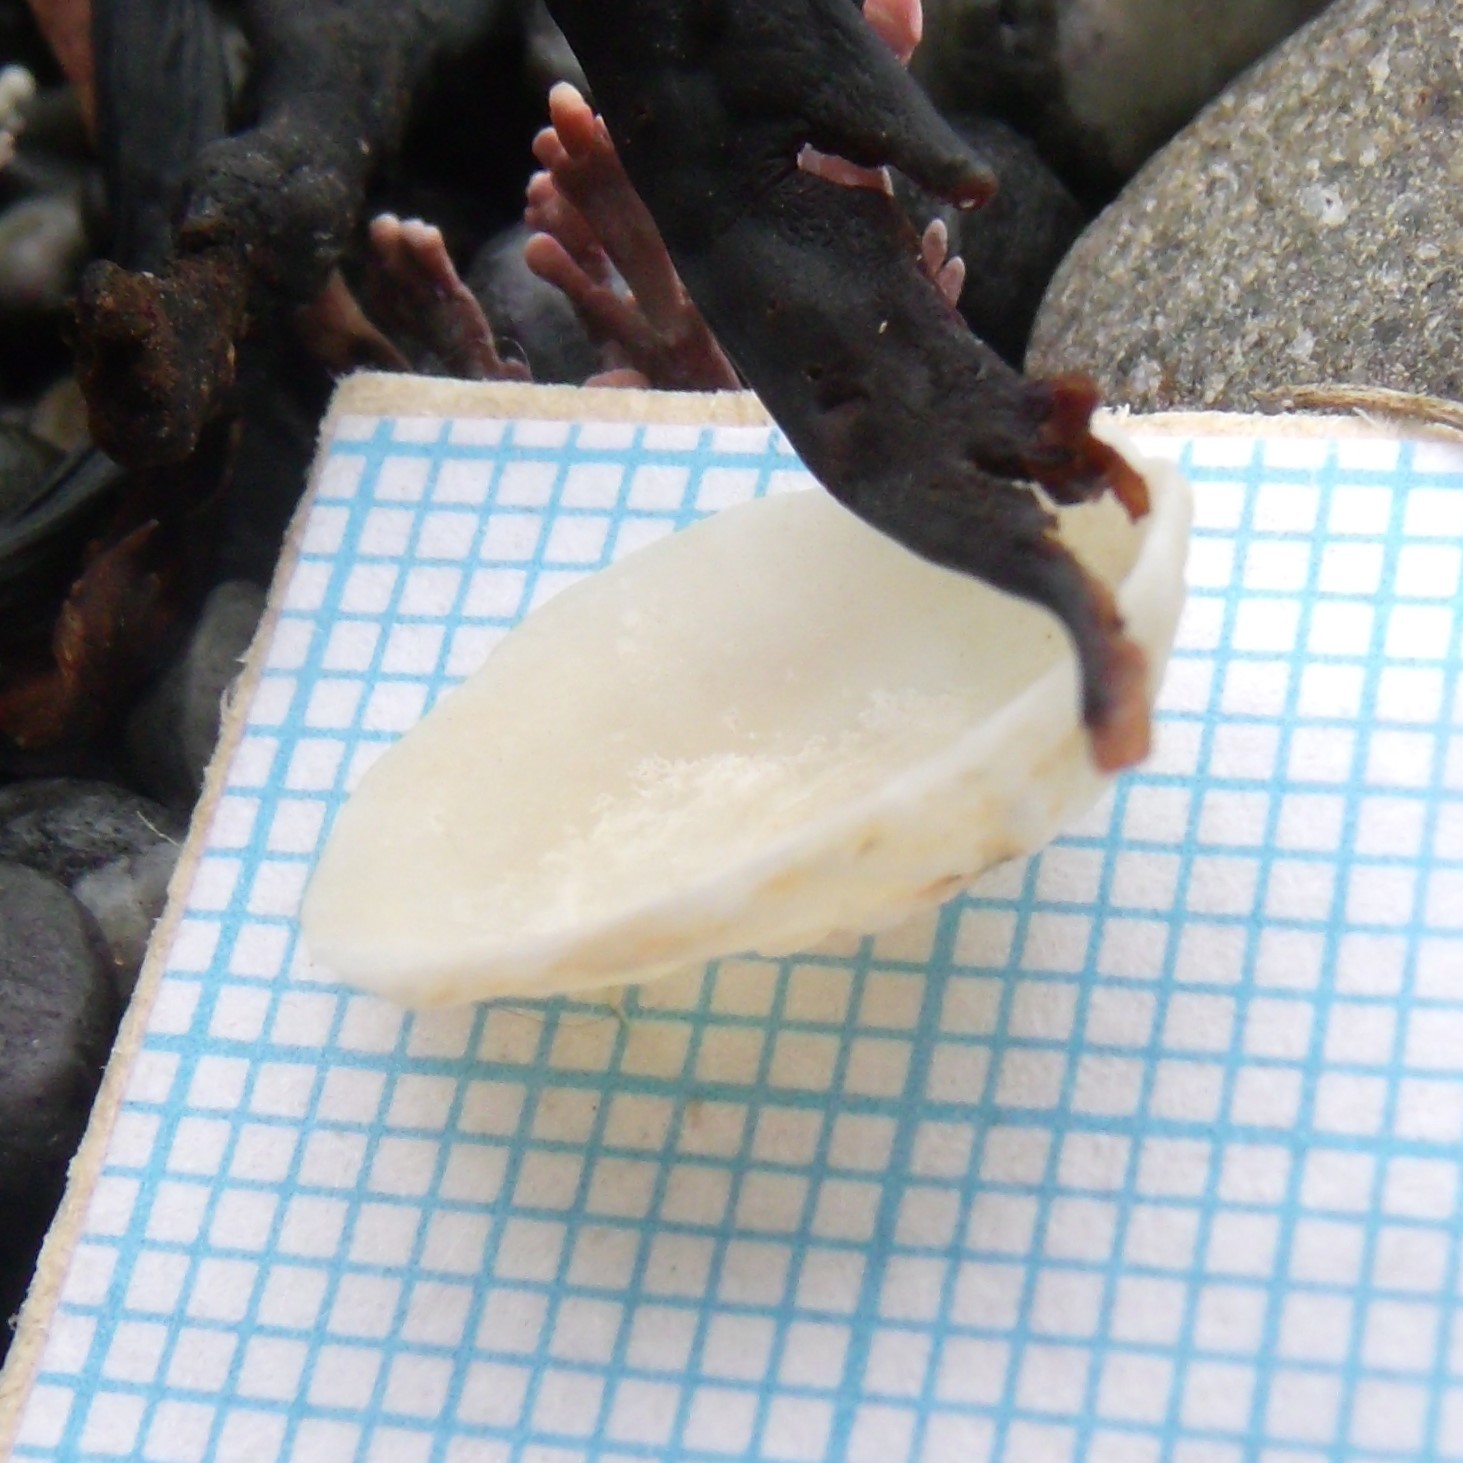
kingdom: Animalia
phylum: Mollusca
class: Gastropoda
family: Lottiidae
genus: Radiacmea
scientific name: Radiacmea inconspicua
